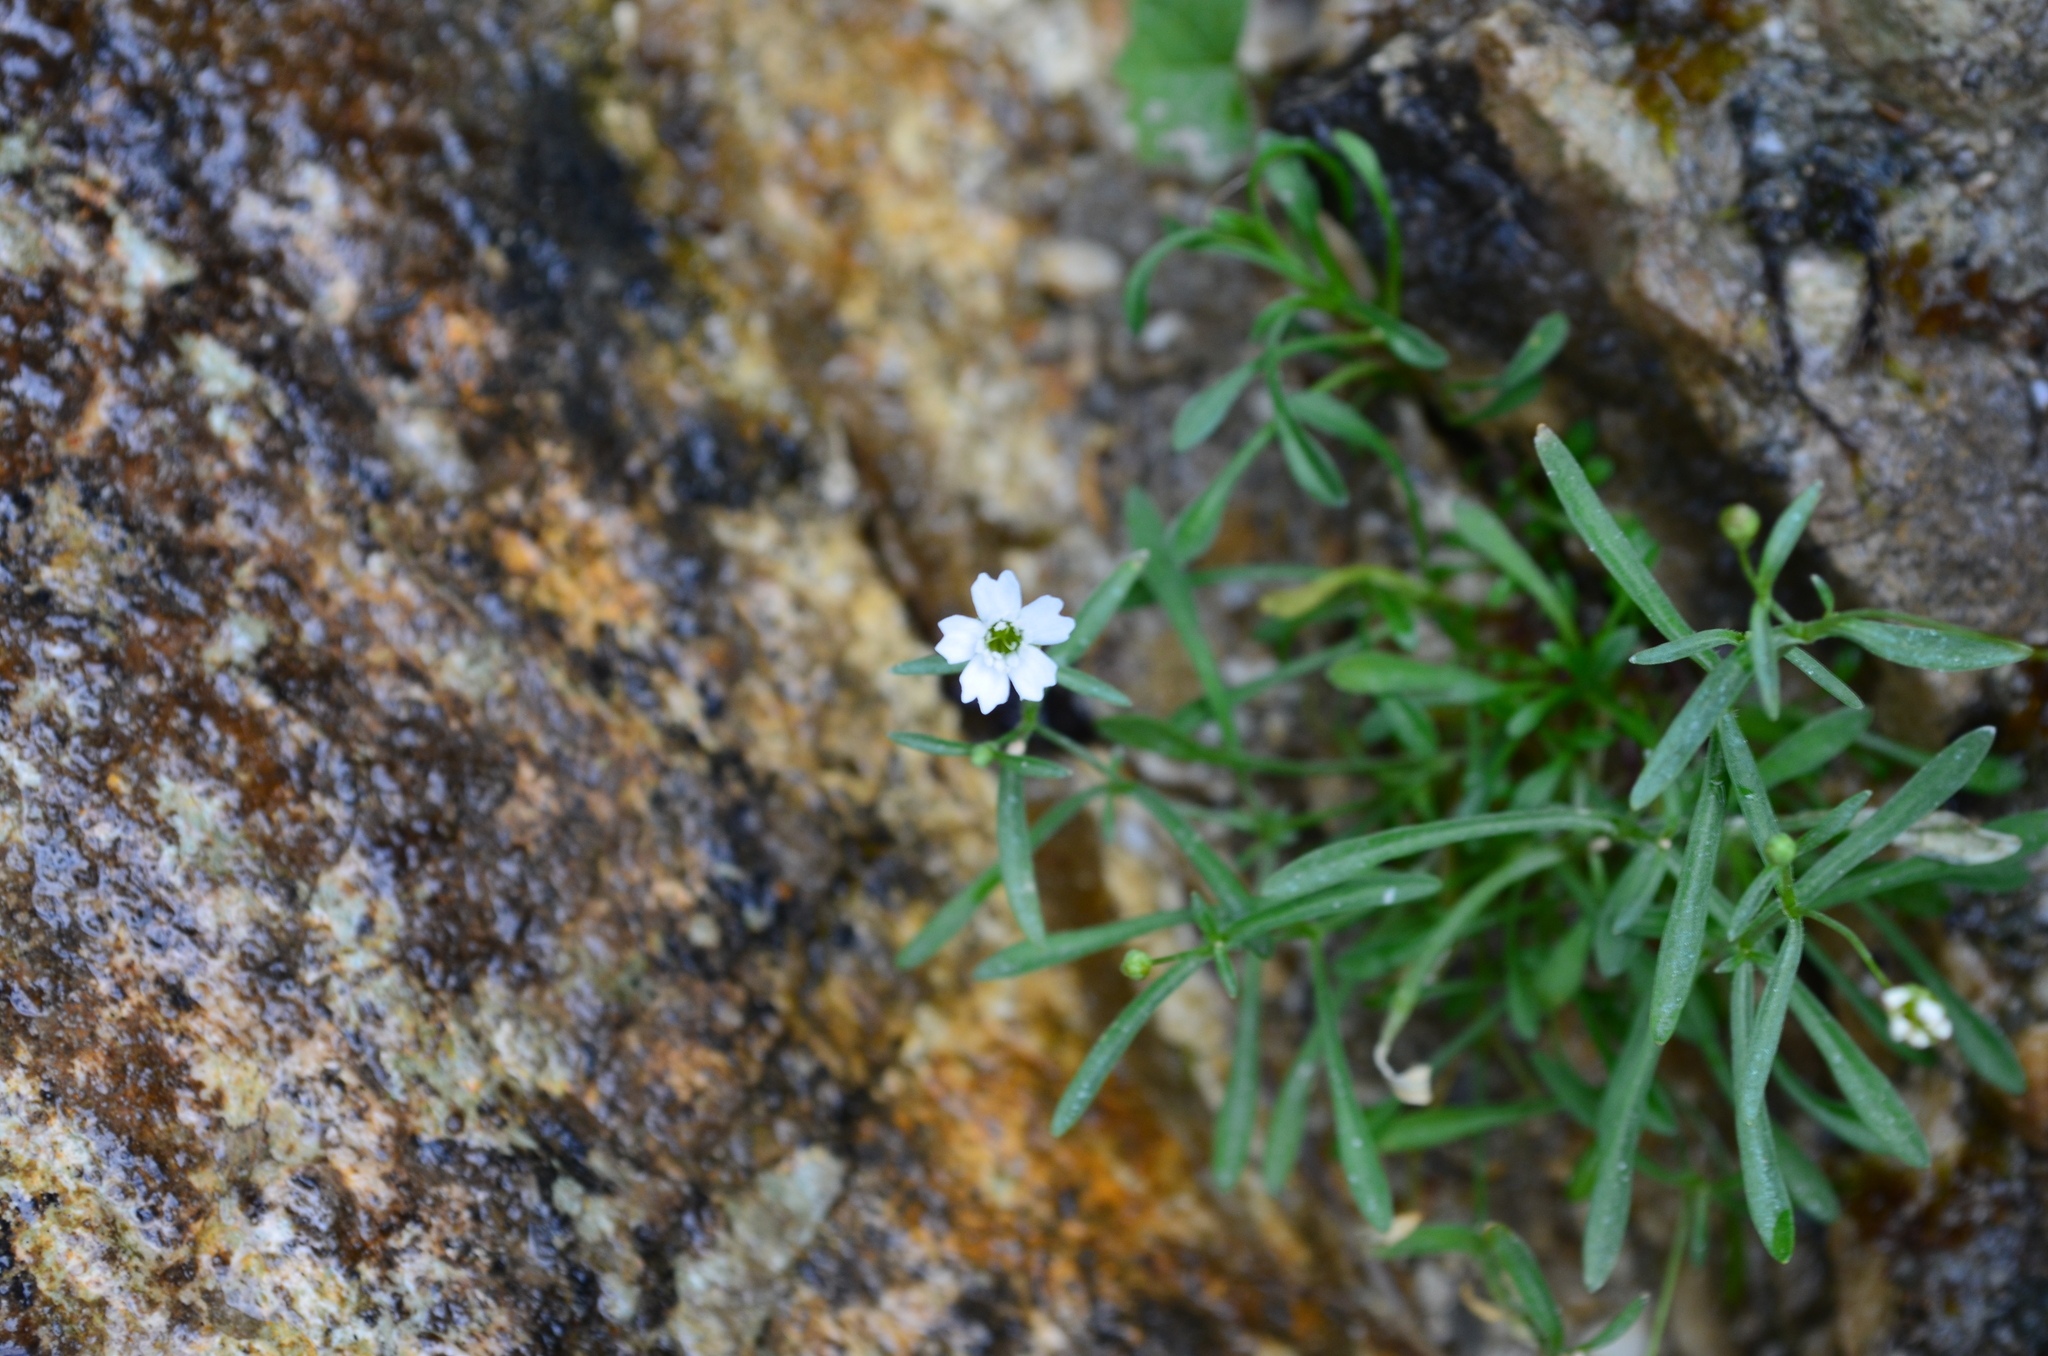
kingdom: Plantae
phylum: Tracheophyta
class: Magnoliopsida
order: Caryophyllales
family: Caryophyllaceae
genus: Heliosperma
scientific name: Heliosperma pusillum
